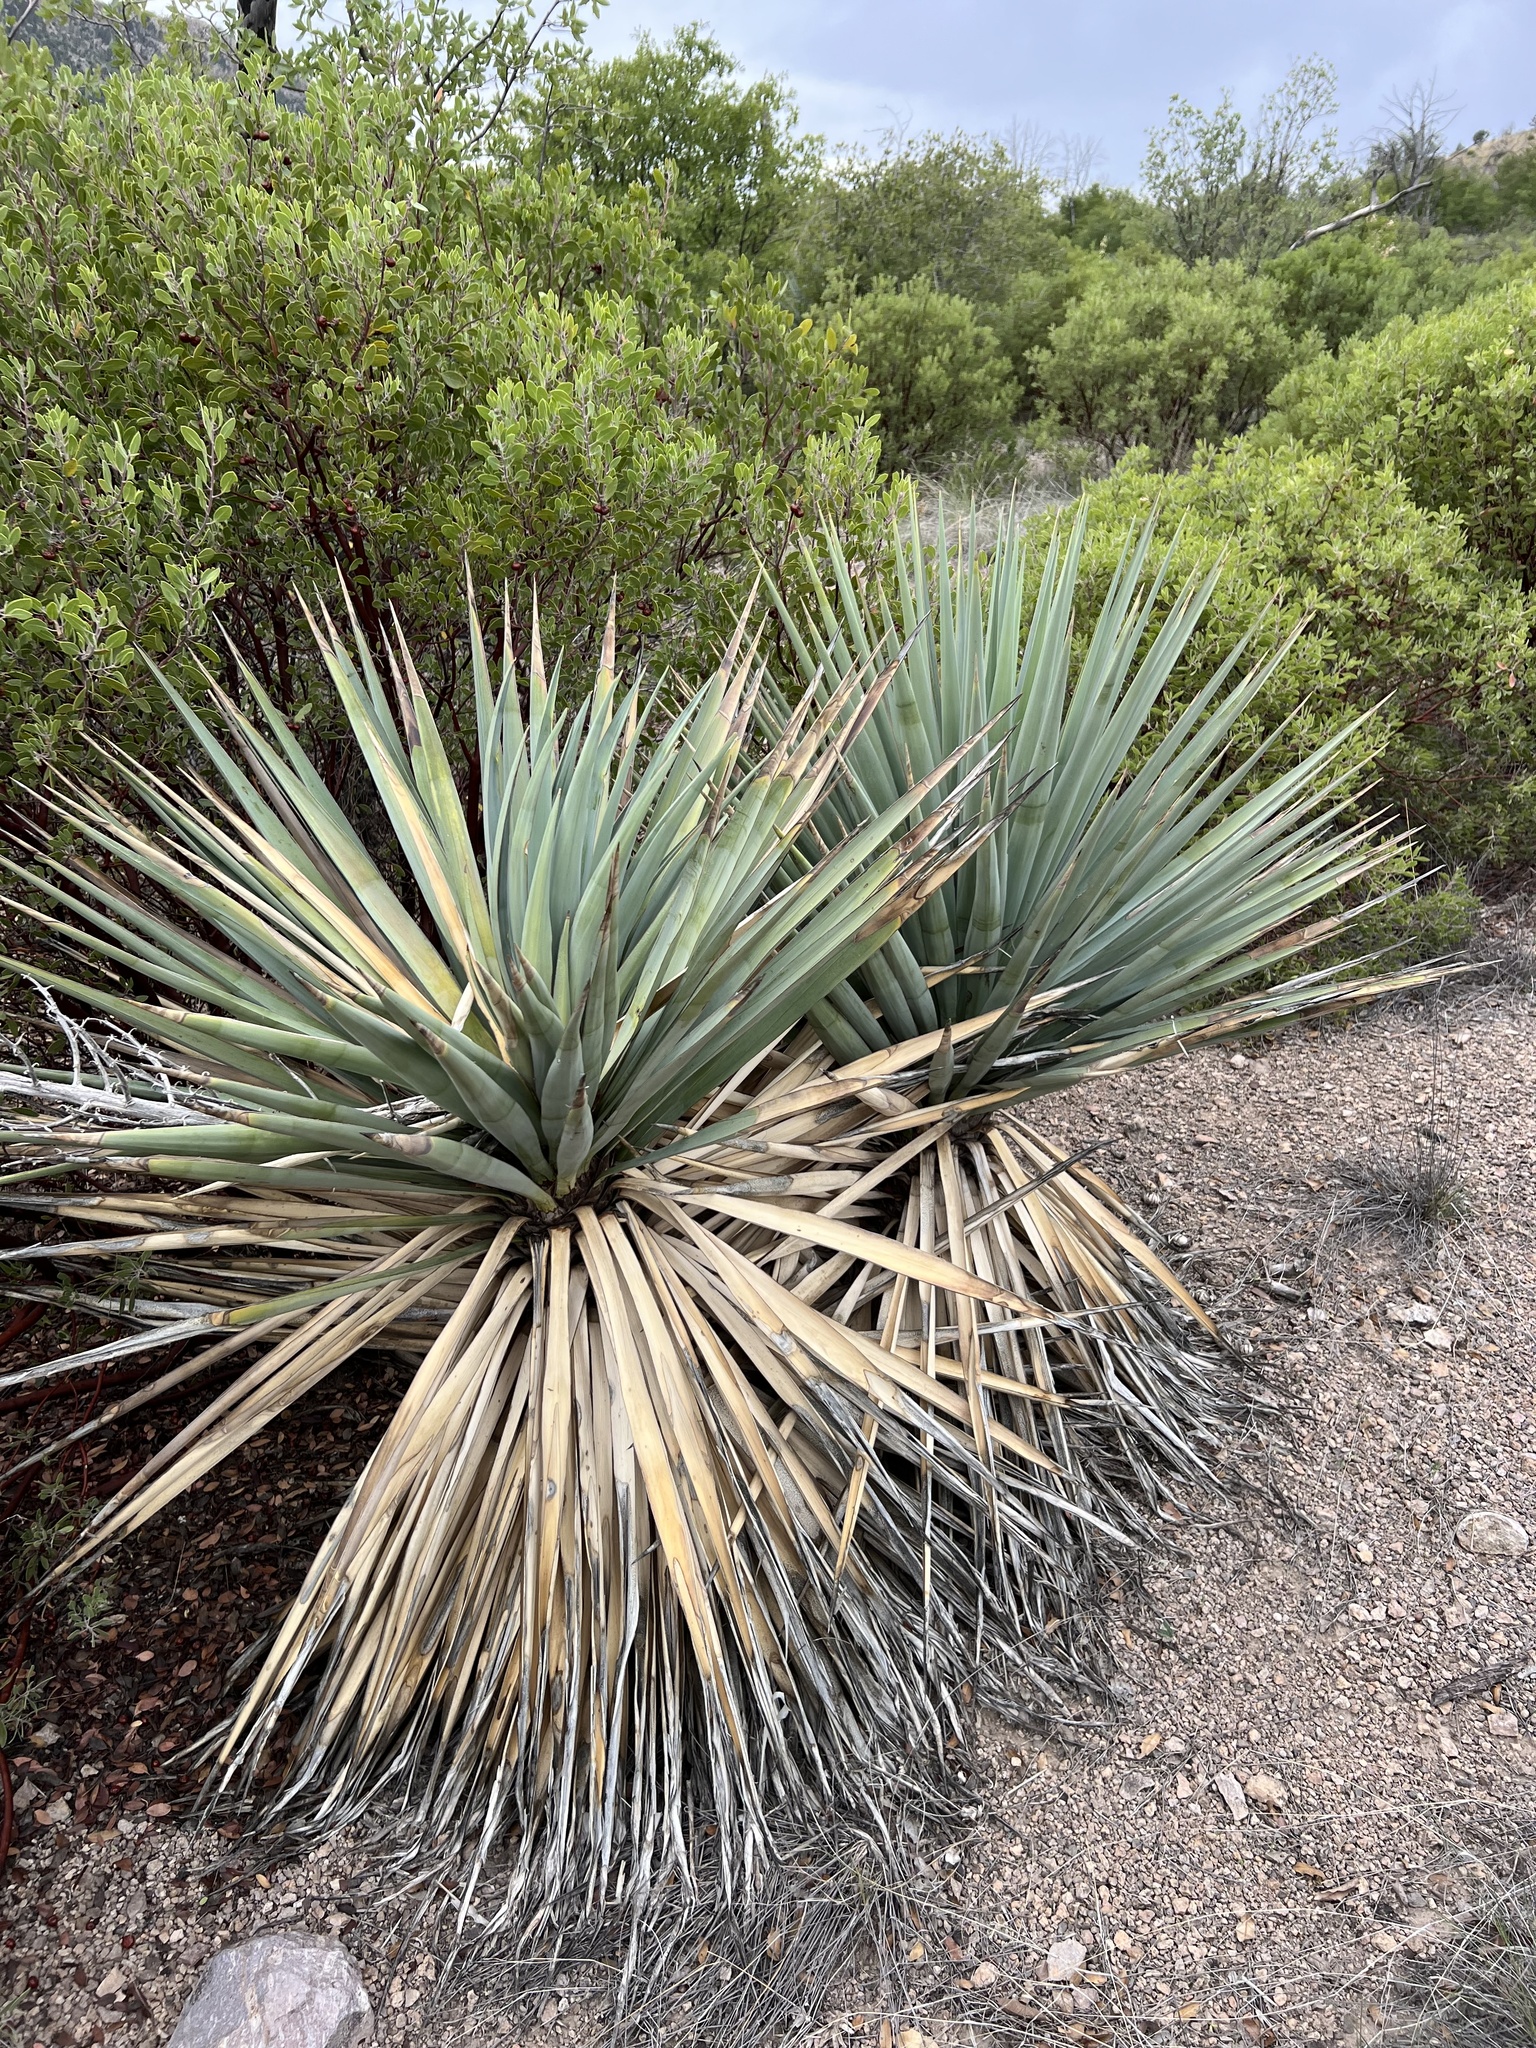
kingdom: Plantae
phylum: Tracheophyta
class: Liliopsida
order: Asparagales
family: Asparagaceae
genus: Yucca
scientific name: Yucca schottii
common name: Hoary yucca
